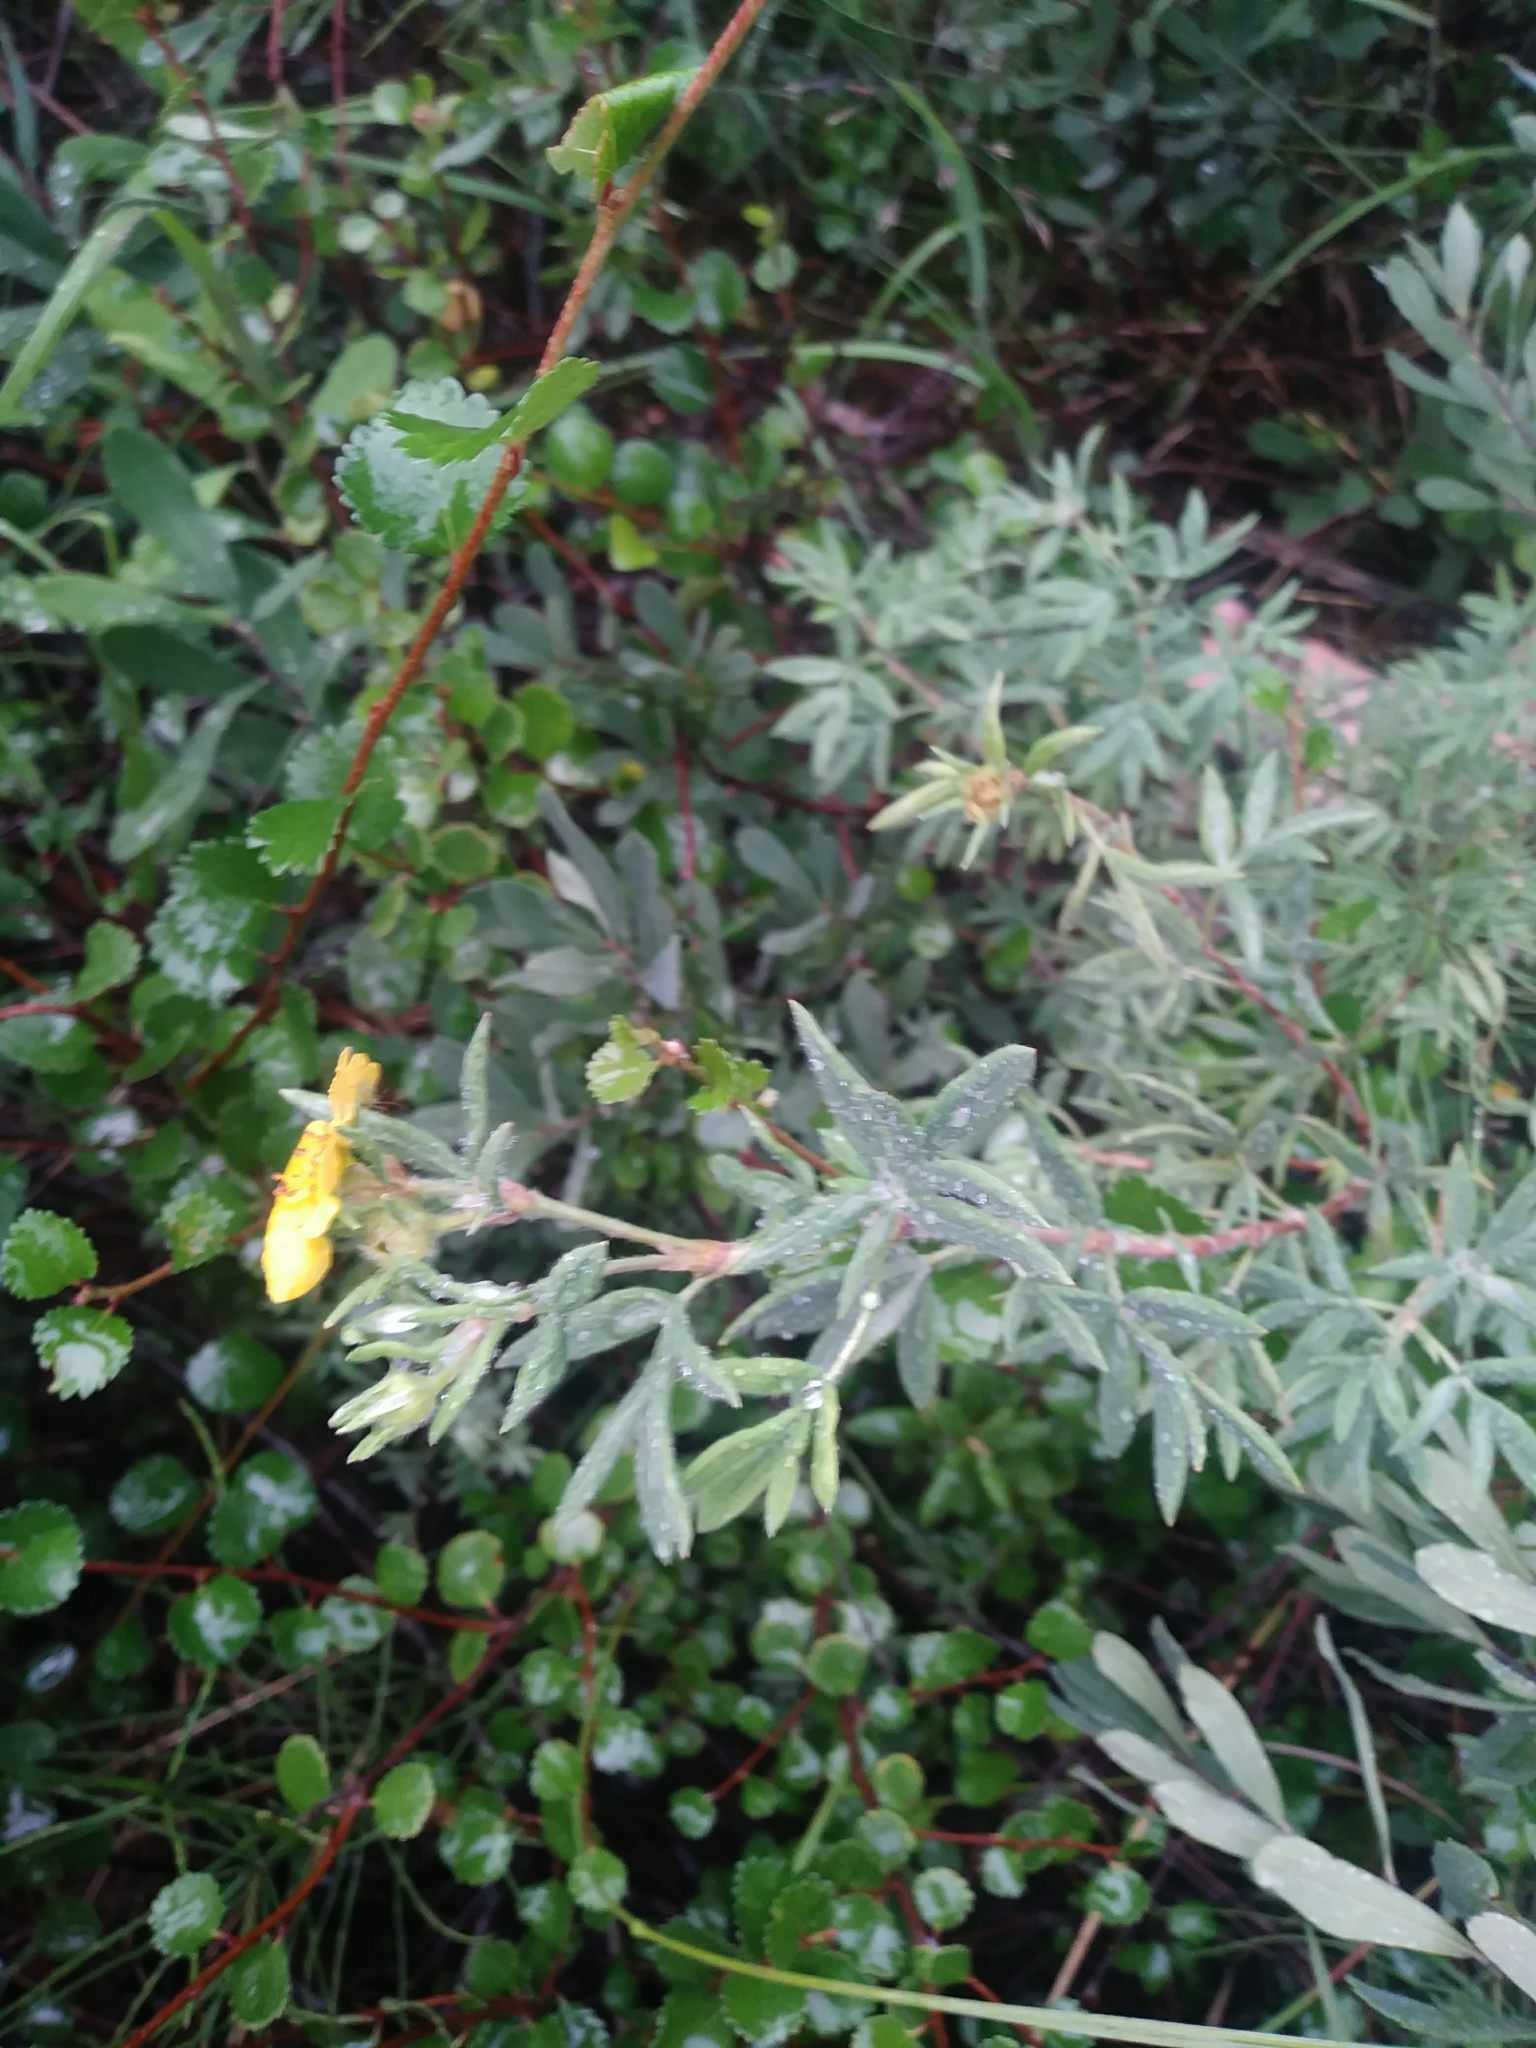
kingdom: Plantae
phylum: Tracheophyta
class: Magnoliopsida
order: Rosales
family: Rosaceae
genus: Dasiphora
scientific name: Dasiphora fruticosa
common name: Shrubby cinquefoil
